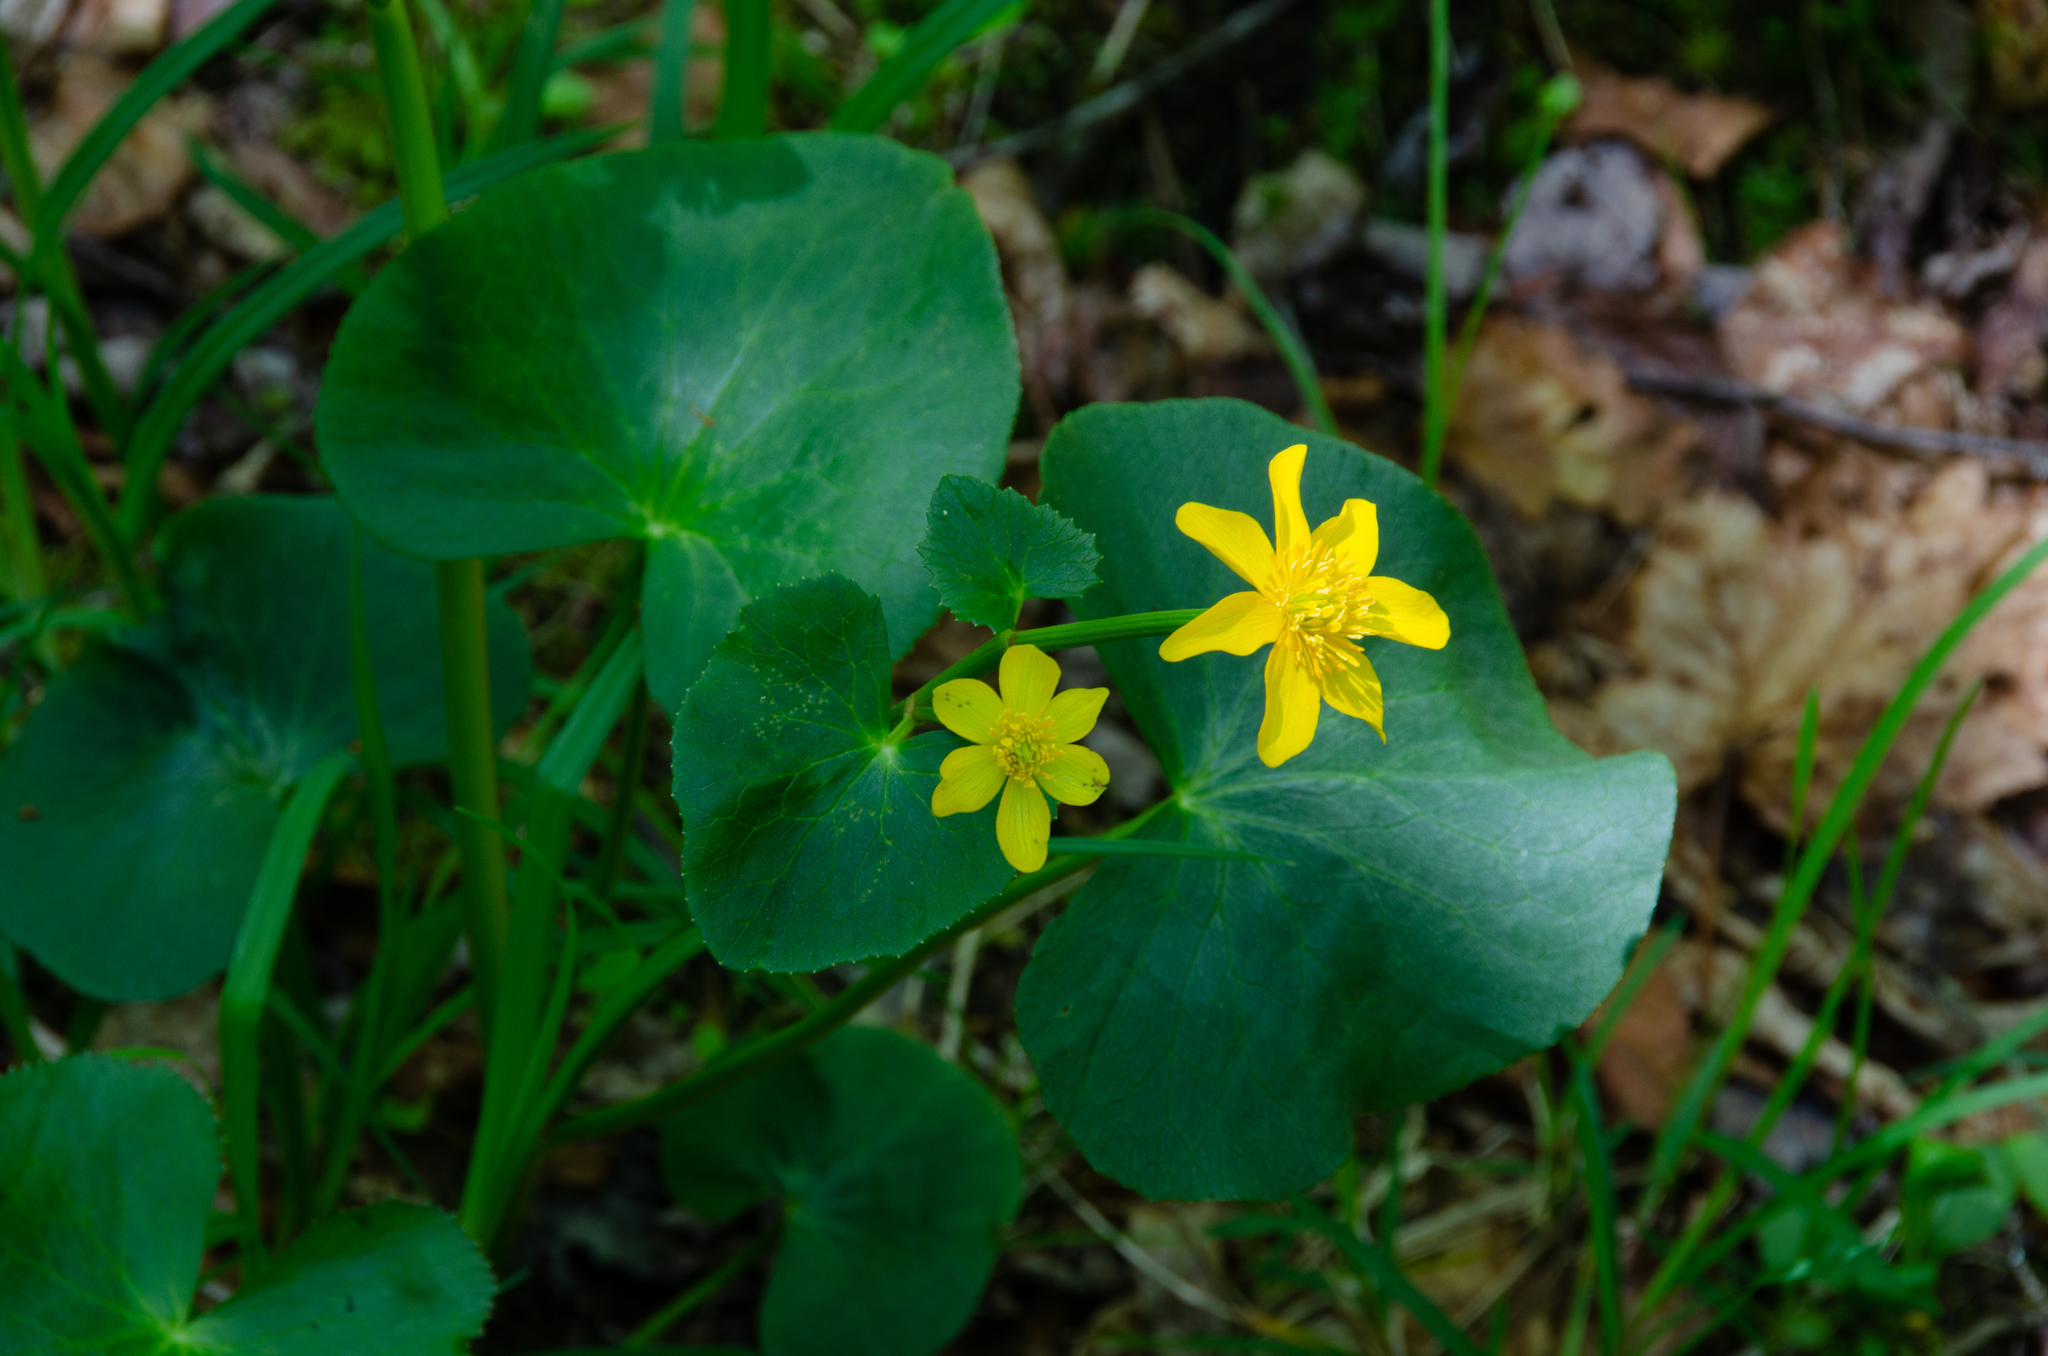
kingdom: Plantae
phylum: Tracheophyta
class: Magnoliopsida
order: Ranunculales
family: Ranunculaceae
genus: Caltha
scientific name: Caltha palustris
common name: Marsh marigold
